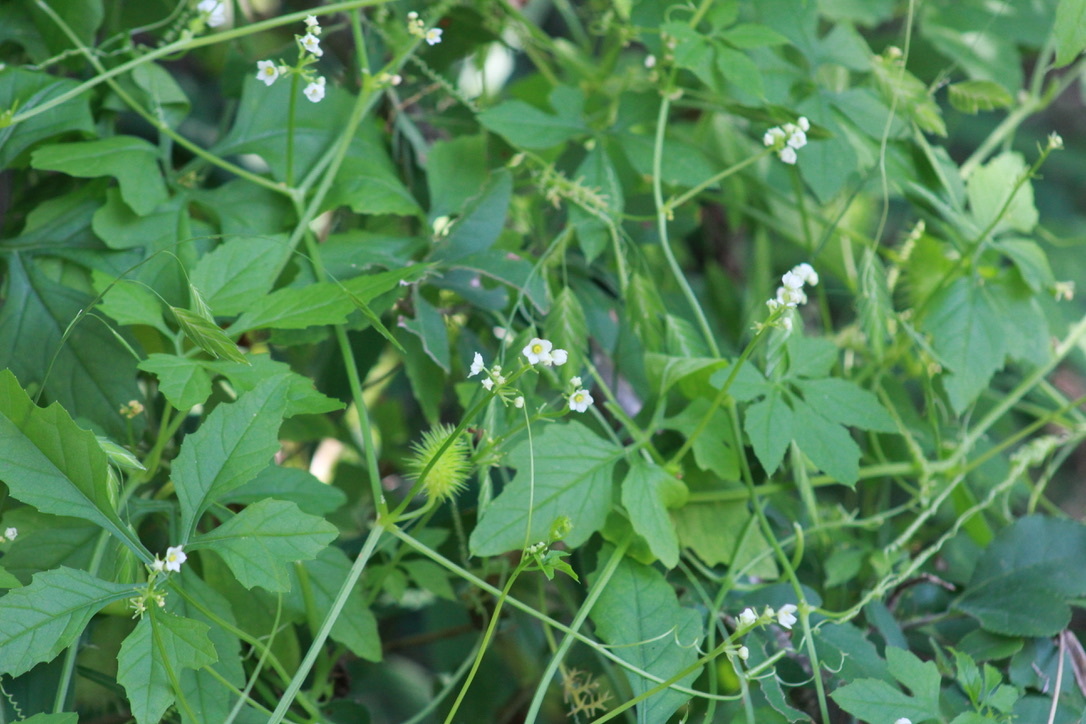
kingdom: Plantae
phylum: Tracheophyta
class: Magnoliopsida
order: Cucurbitales
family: Cucurbitaceae
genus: Cyclanthera
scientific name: Cyclanthera naudiniana
